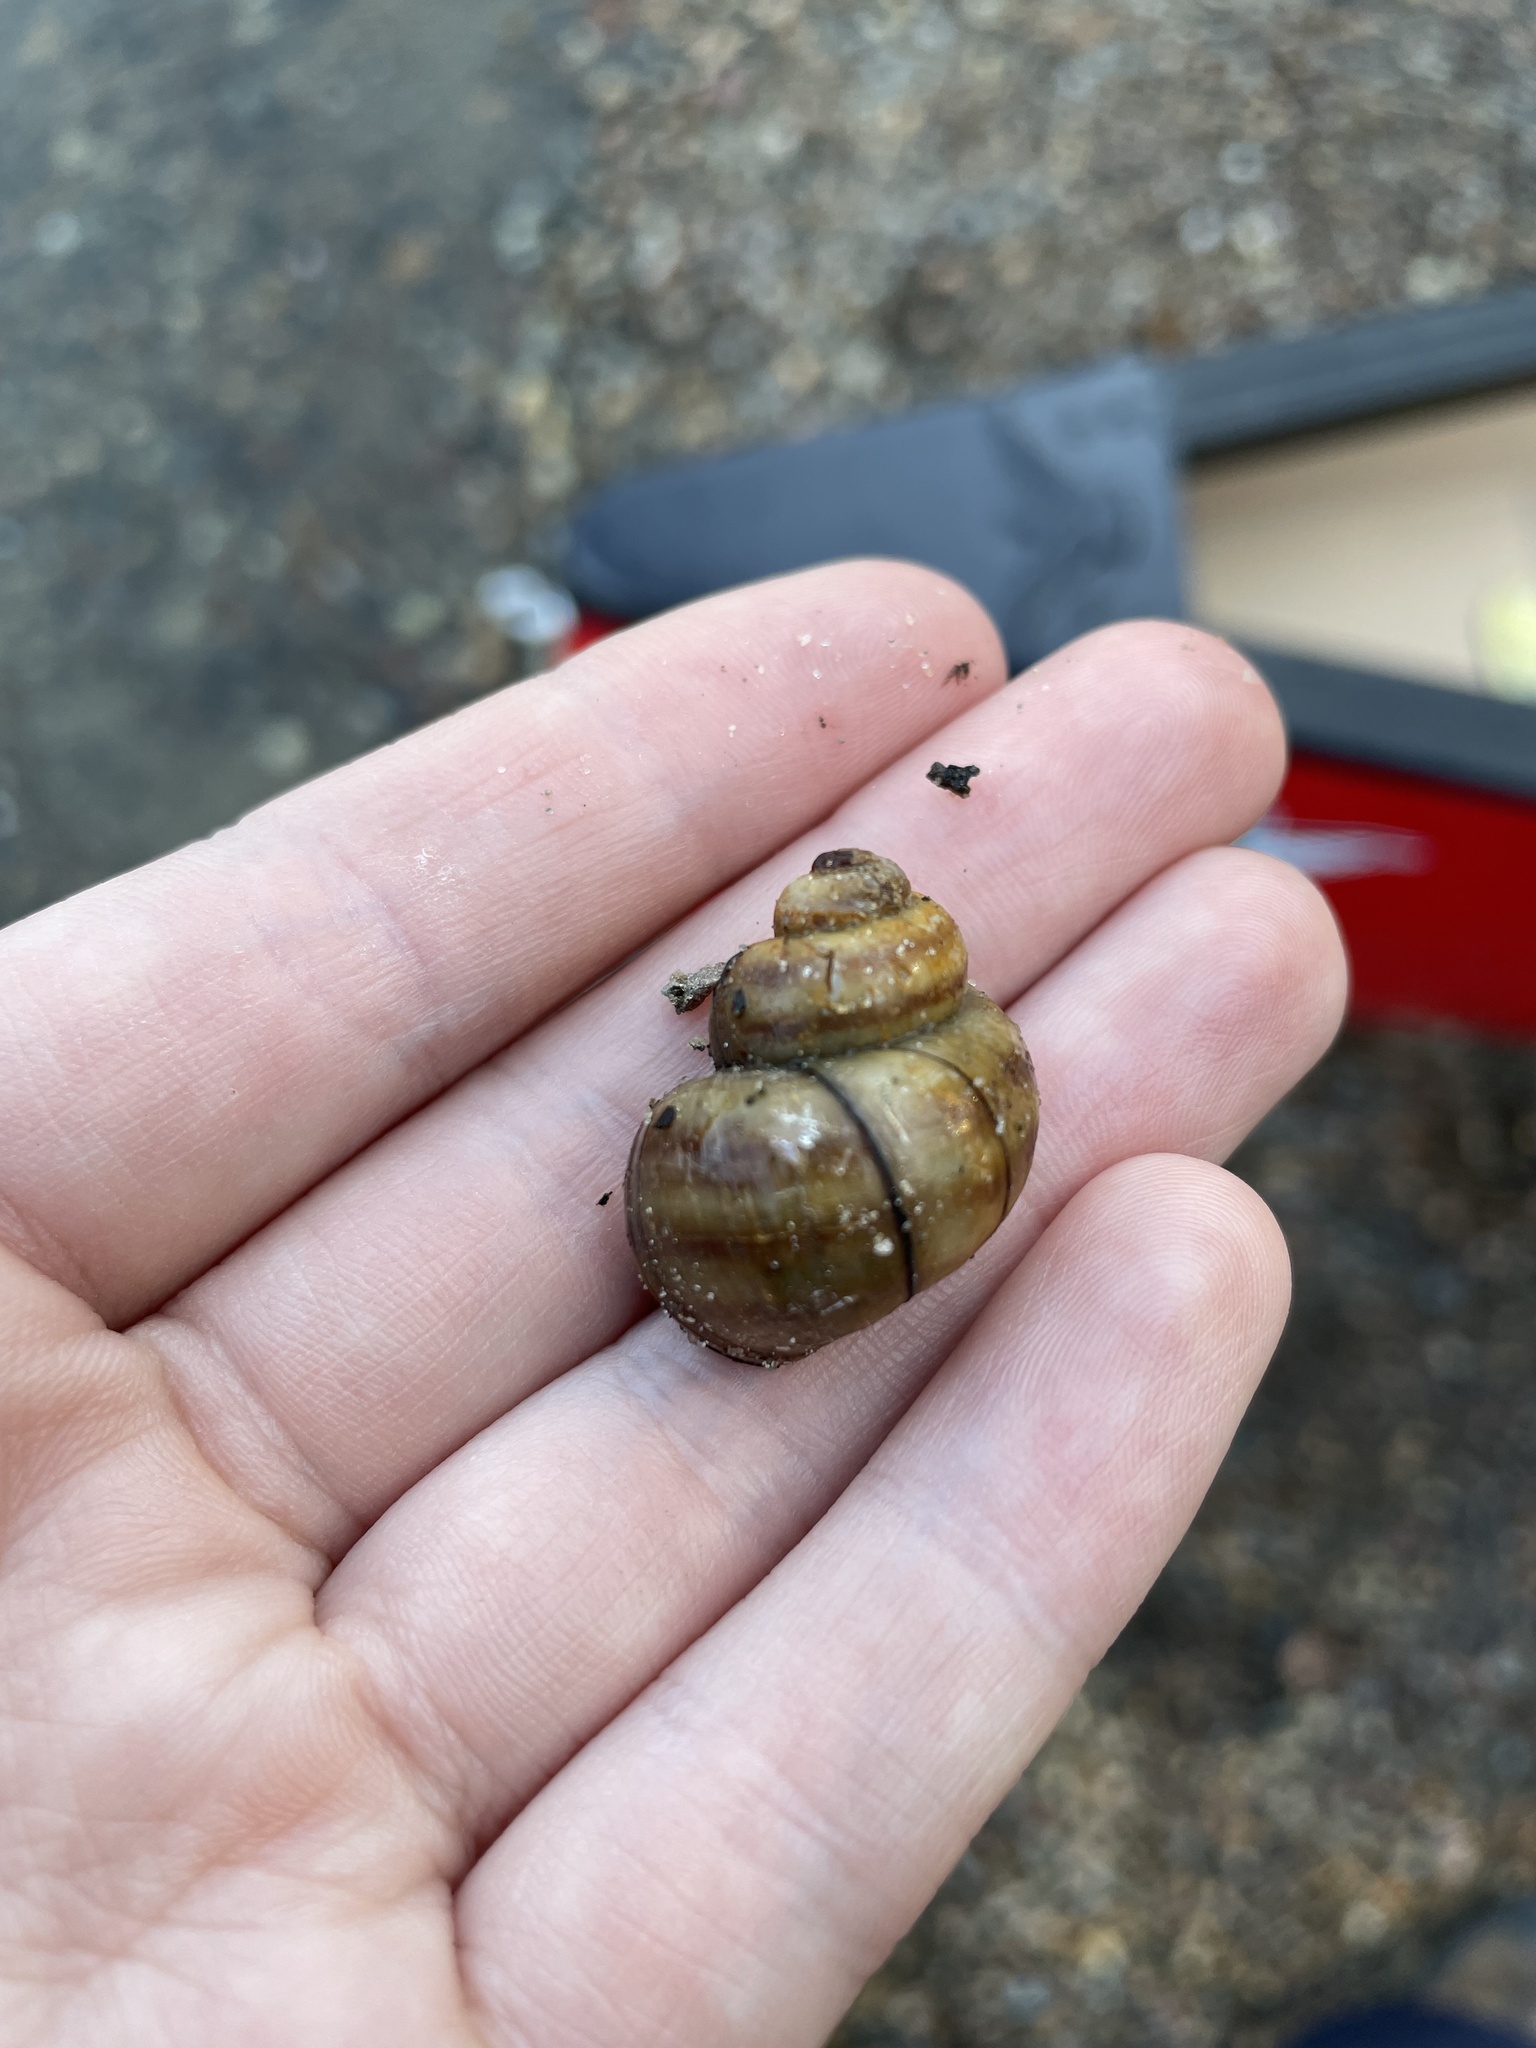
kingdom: Animalia
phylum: Mollusca
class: Gastropoda
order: Architaenioglossa
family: Viviparidae
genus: Callinina
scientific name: Callinina georgiana
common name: Banded mystery snail
